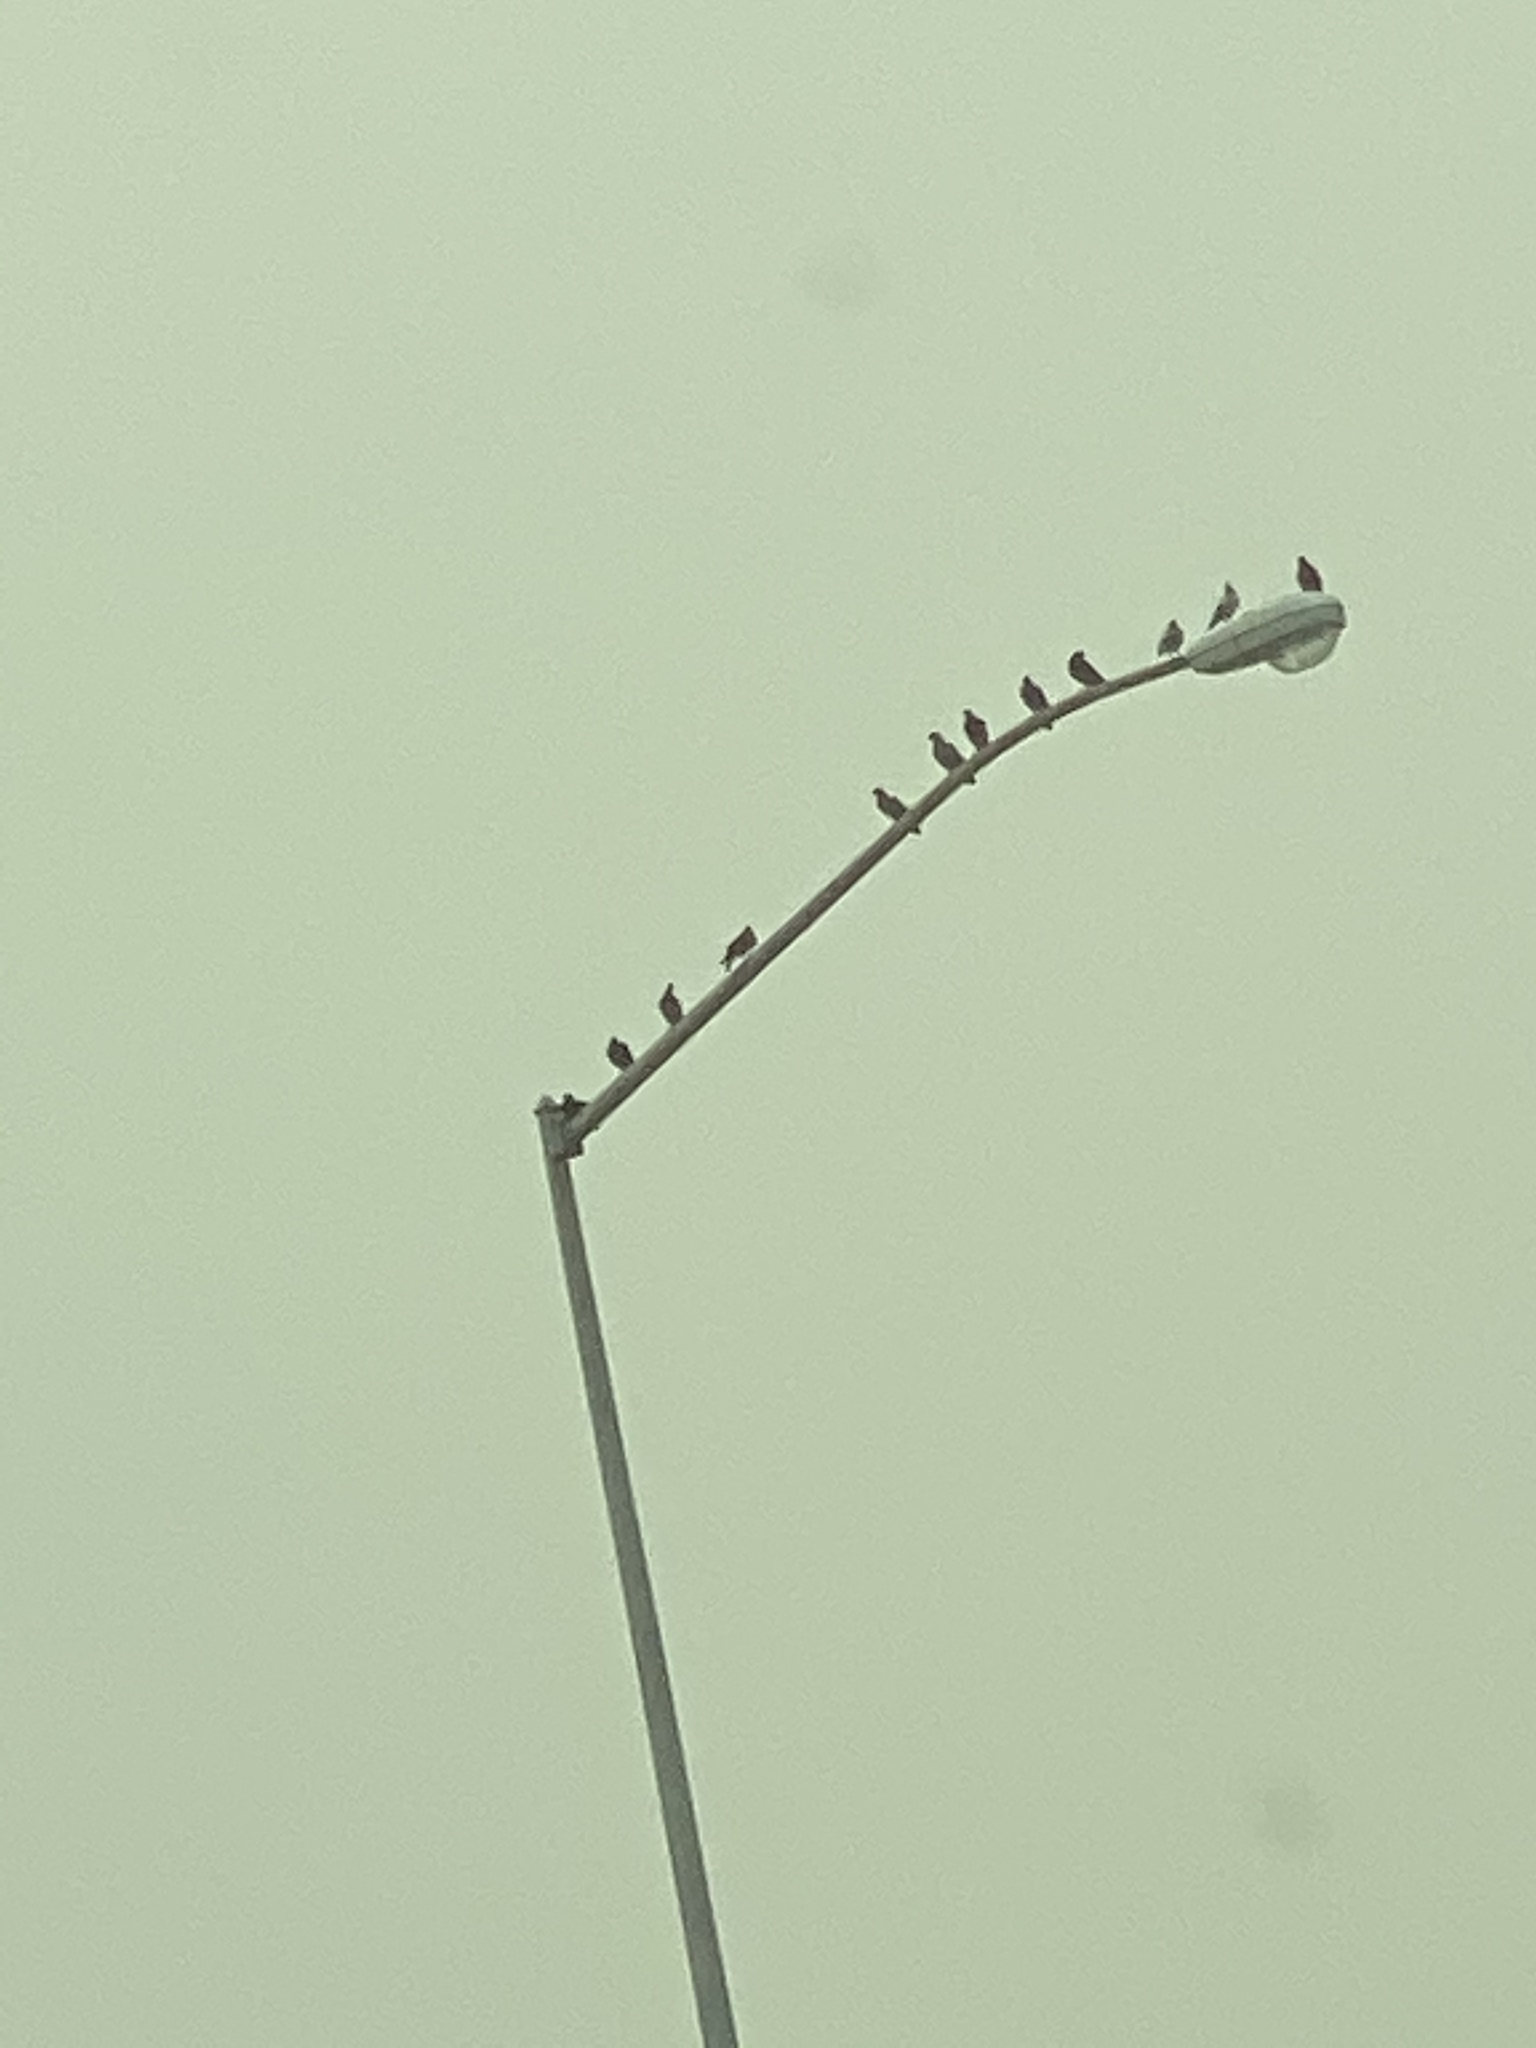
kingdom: Animalia
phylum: Chordata
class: Aves
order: Columbiformes
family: Columbidae
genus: Columba
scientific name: Columba livia
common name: Rock pigeon
